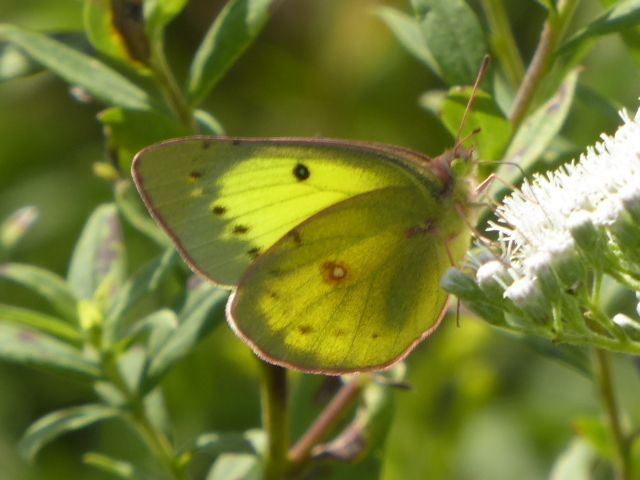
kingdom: Animalia
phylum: Arthropoda
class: Insecta
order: Lepidoptera
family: Pieridae
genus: Colias
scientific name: Colias philodice
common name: Clouded sulphur
